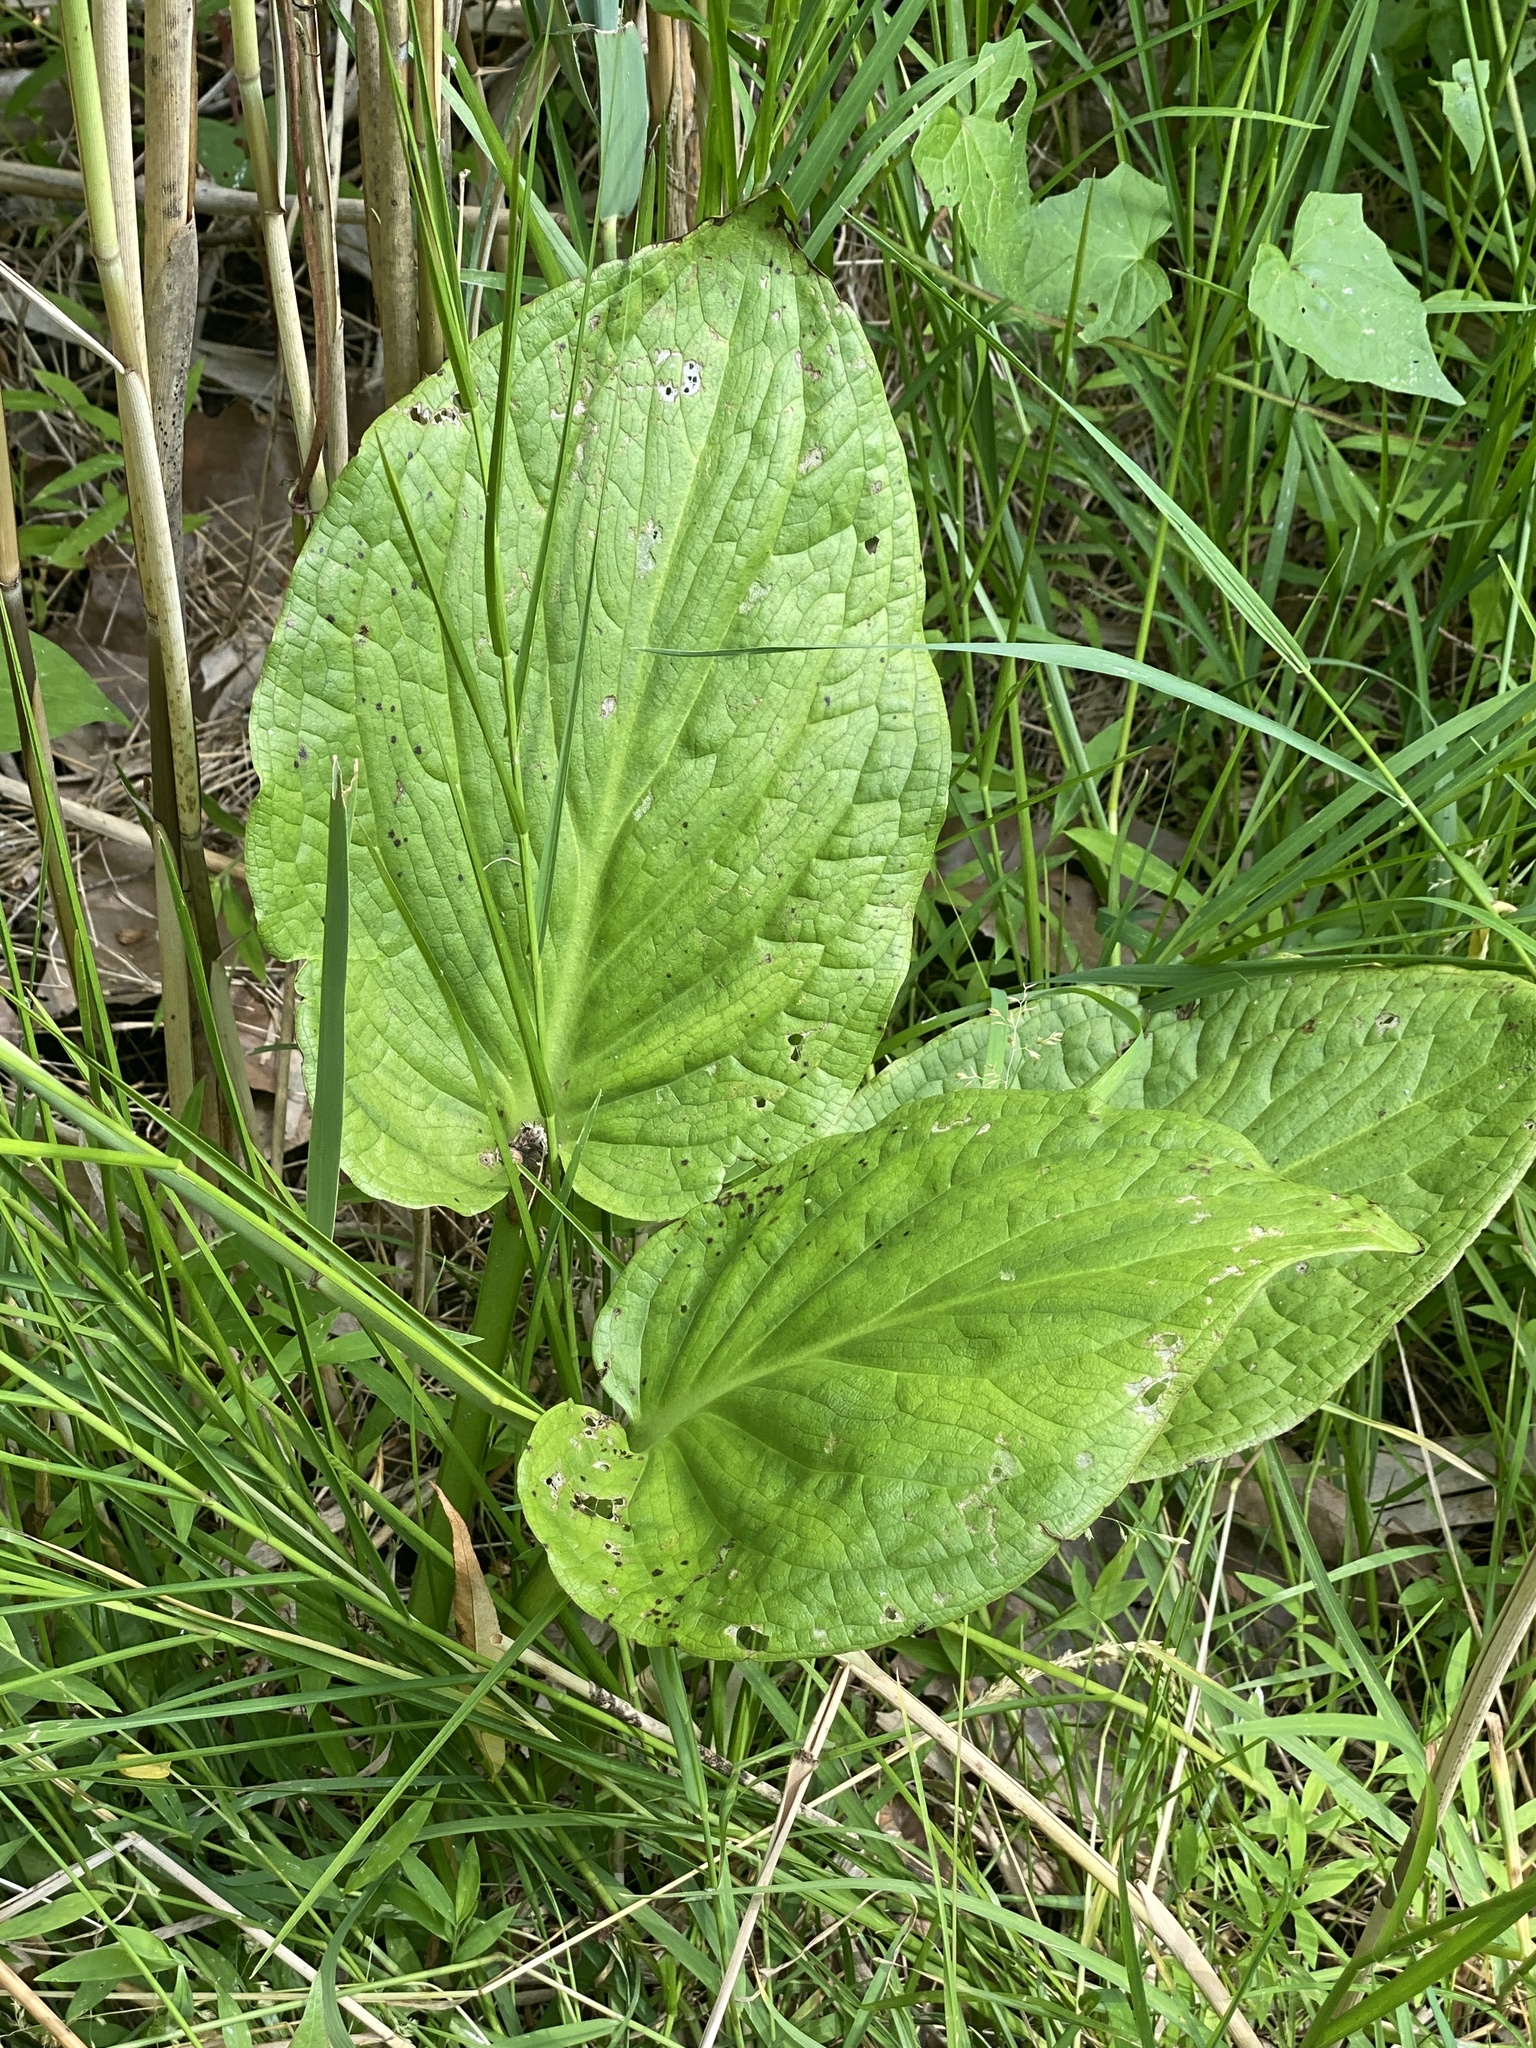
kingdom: Plantae
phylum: Tracheophyta
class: Liliopsida
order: Alismatales
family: Araceae
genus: Symplocarpus
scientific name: Symplocarpus foetidus
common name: Eastern skunk cabbage
